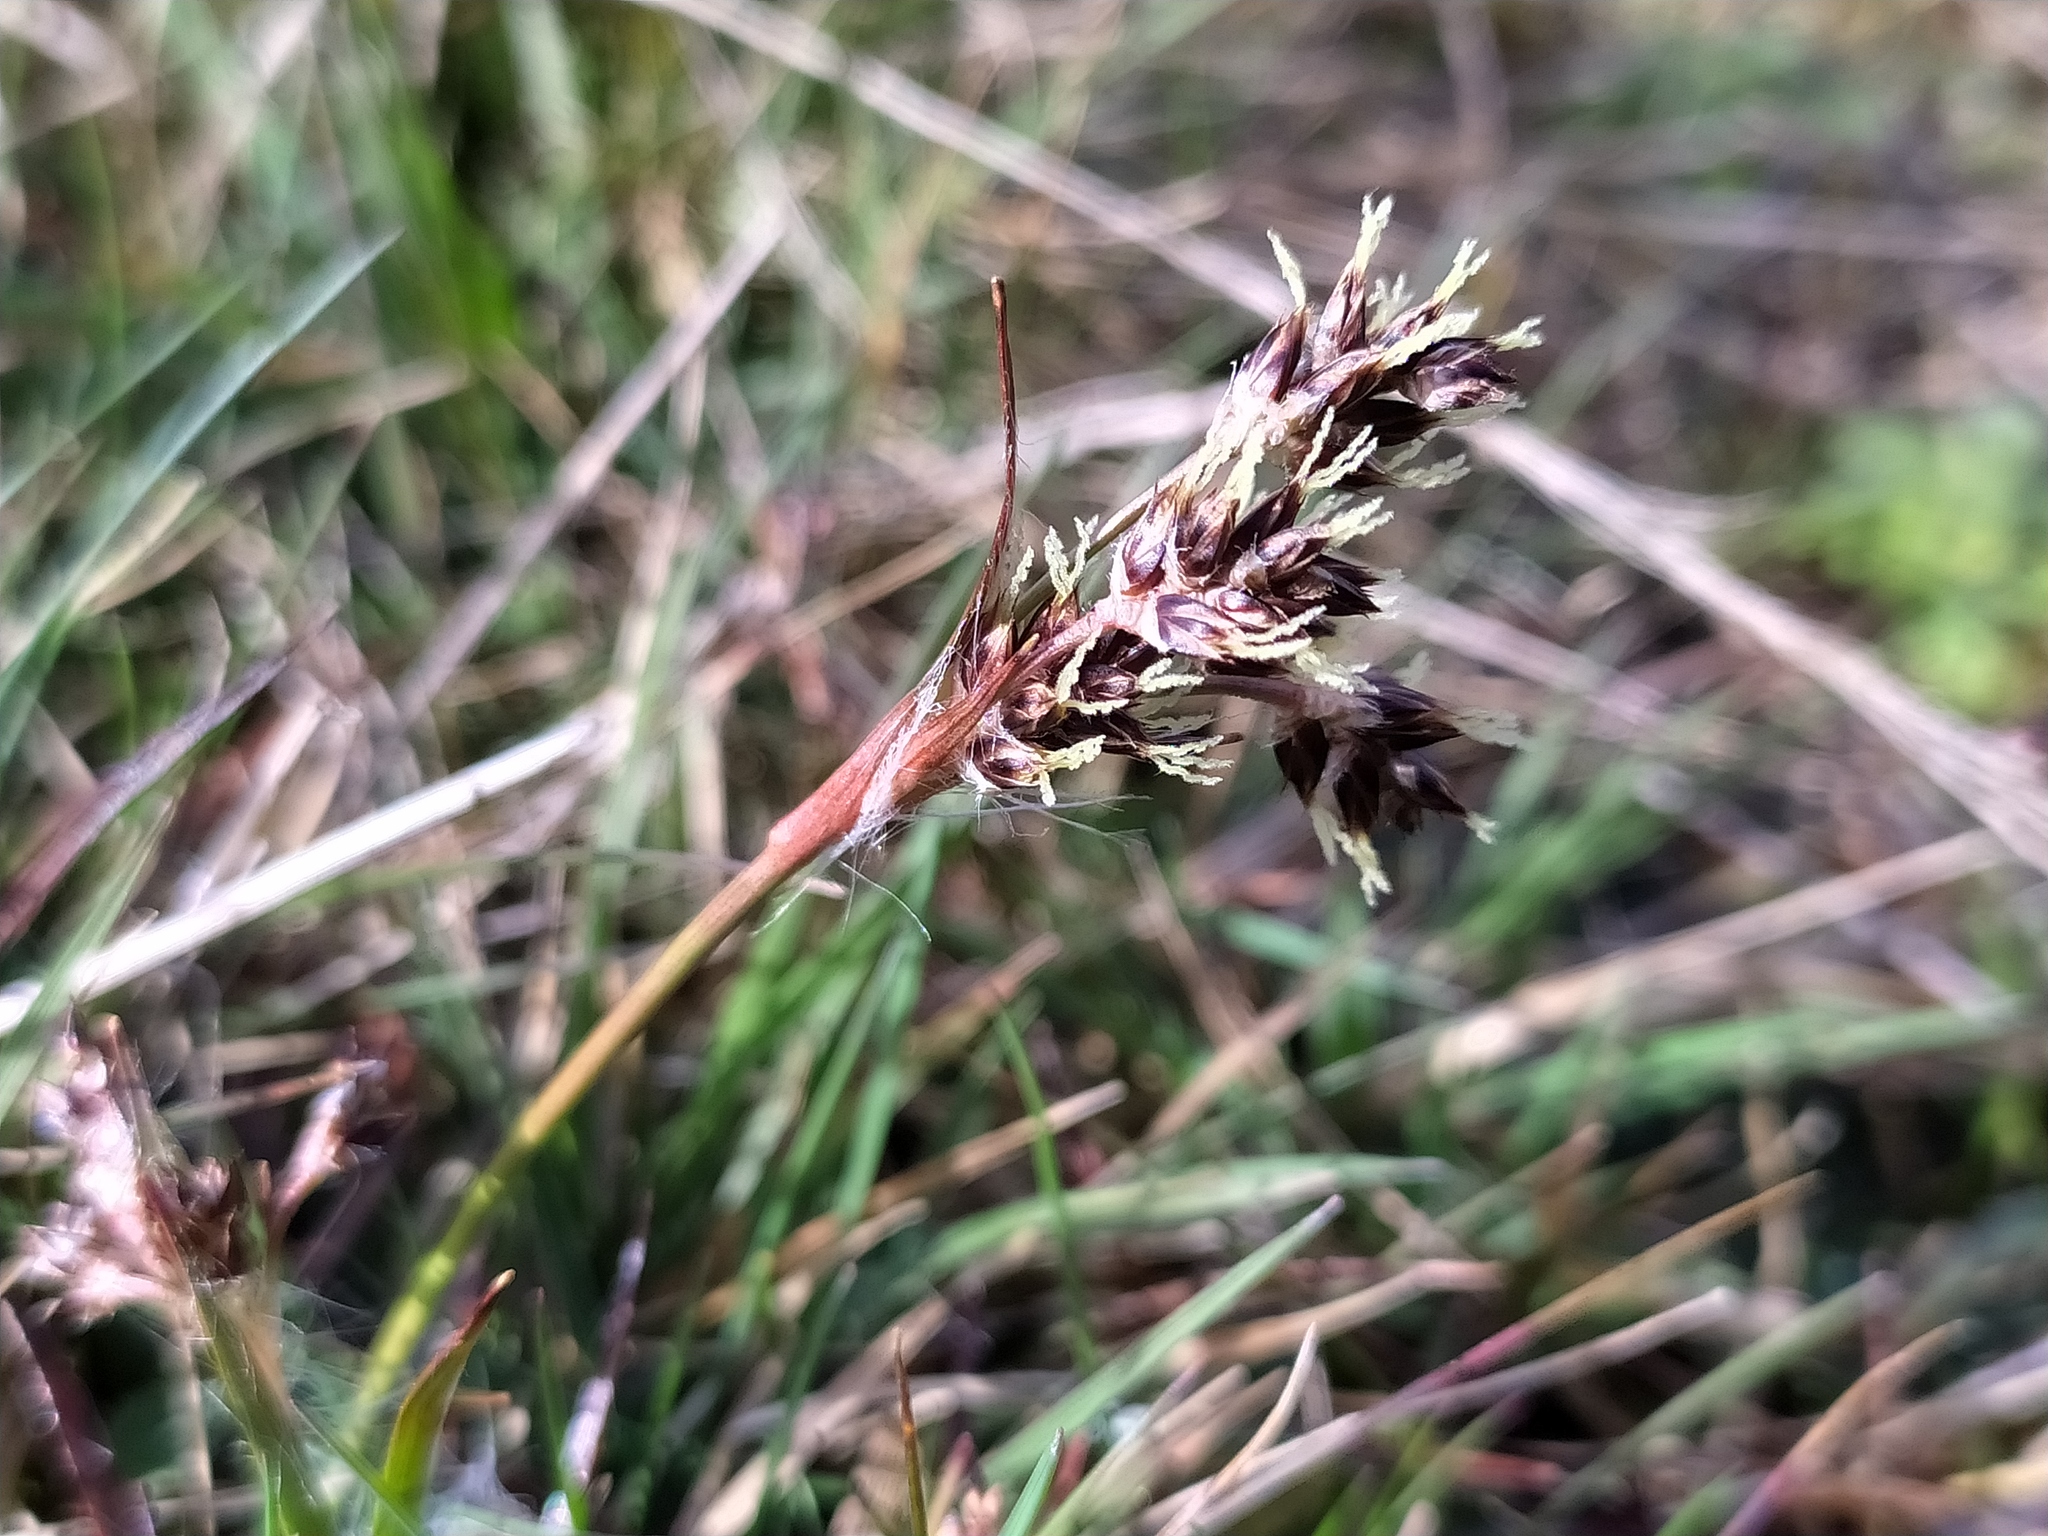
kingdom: Plantae
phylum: Tracheophyta
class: Liliopsida
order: Poales
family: Juncaceae
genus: Luzula
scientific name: Luzula campestris
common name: Field wood-rush
